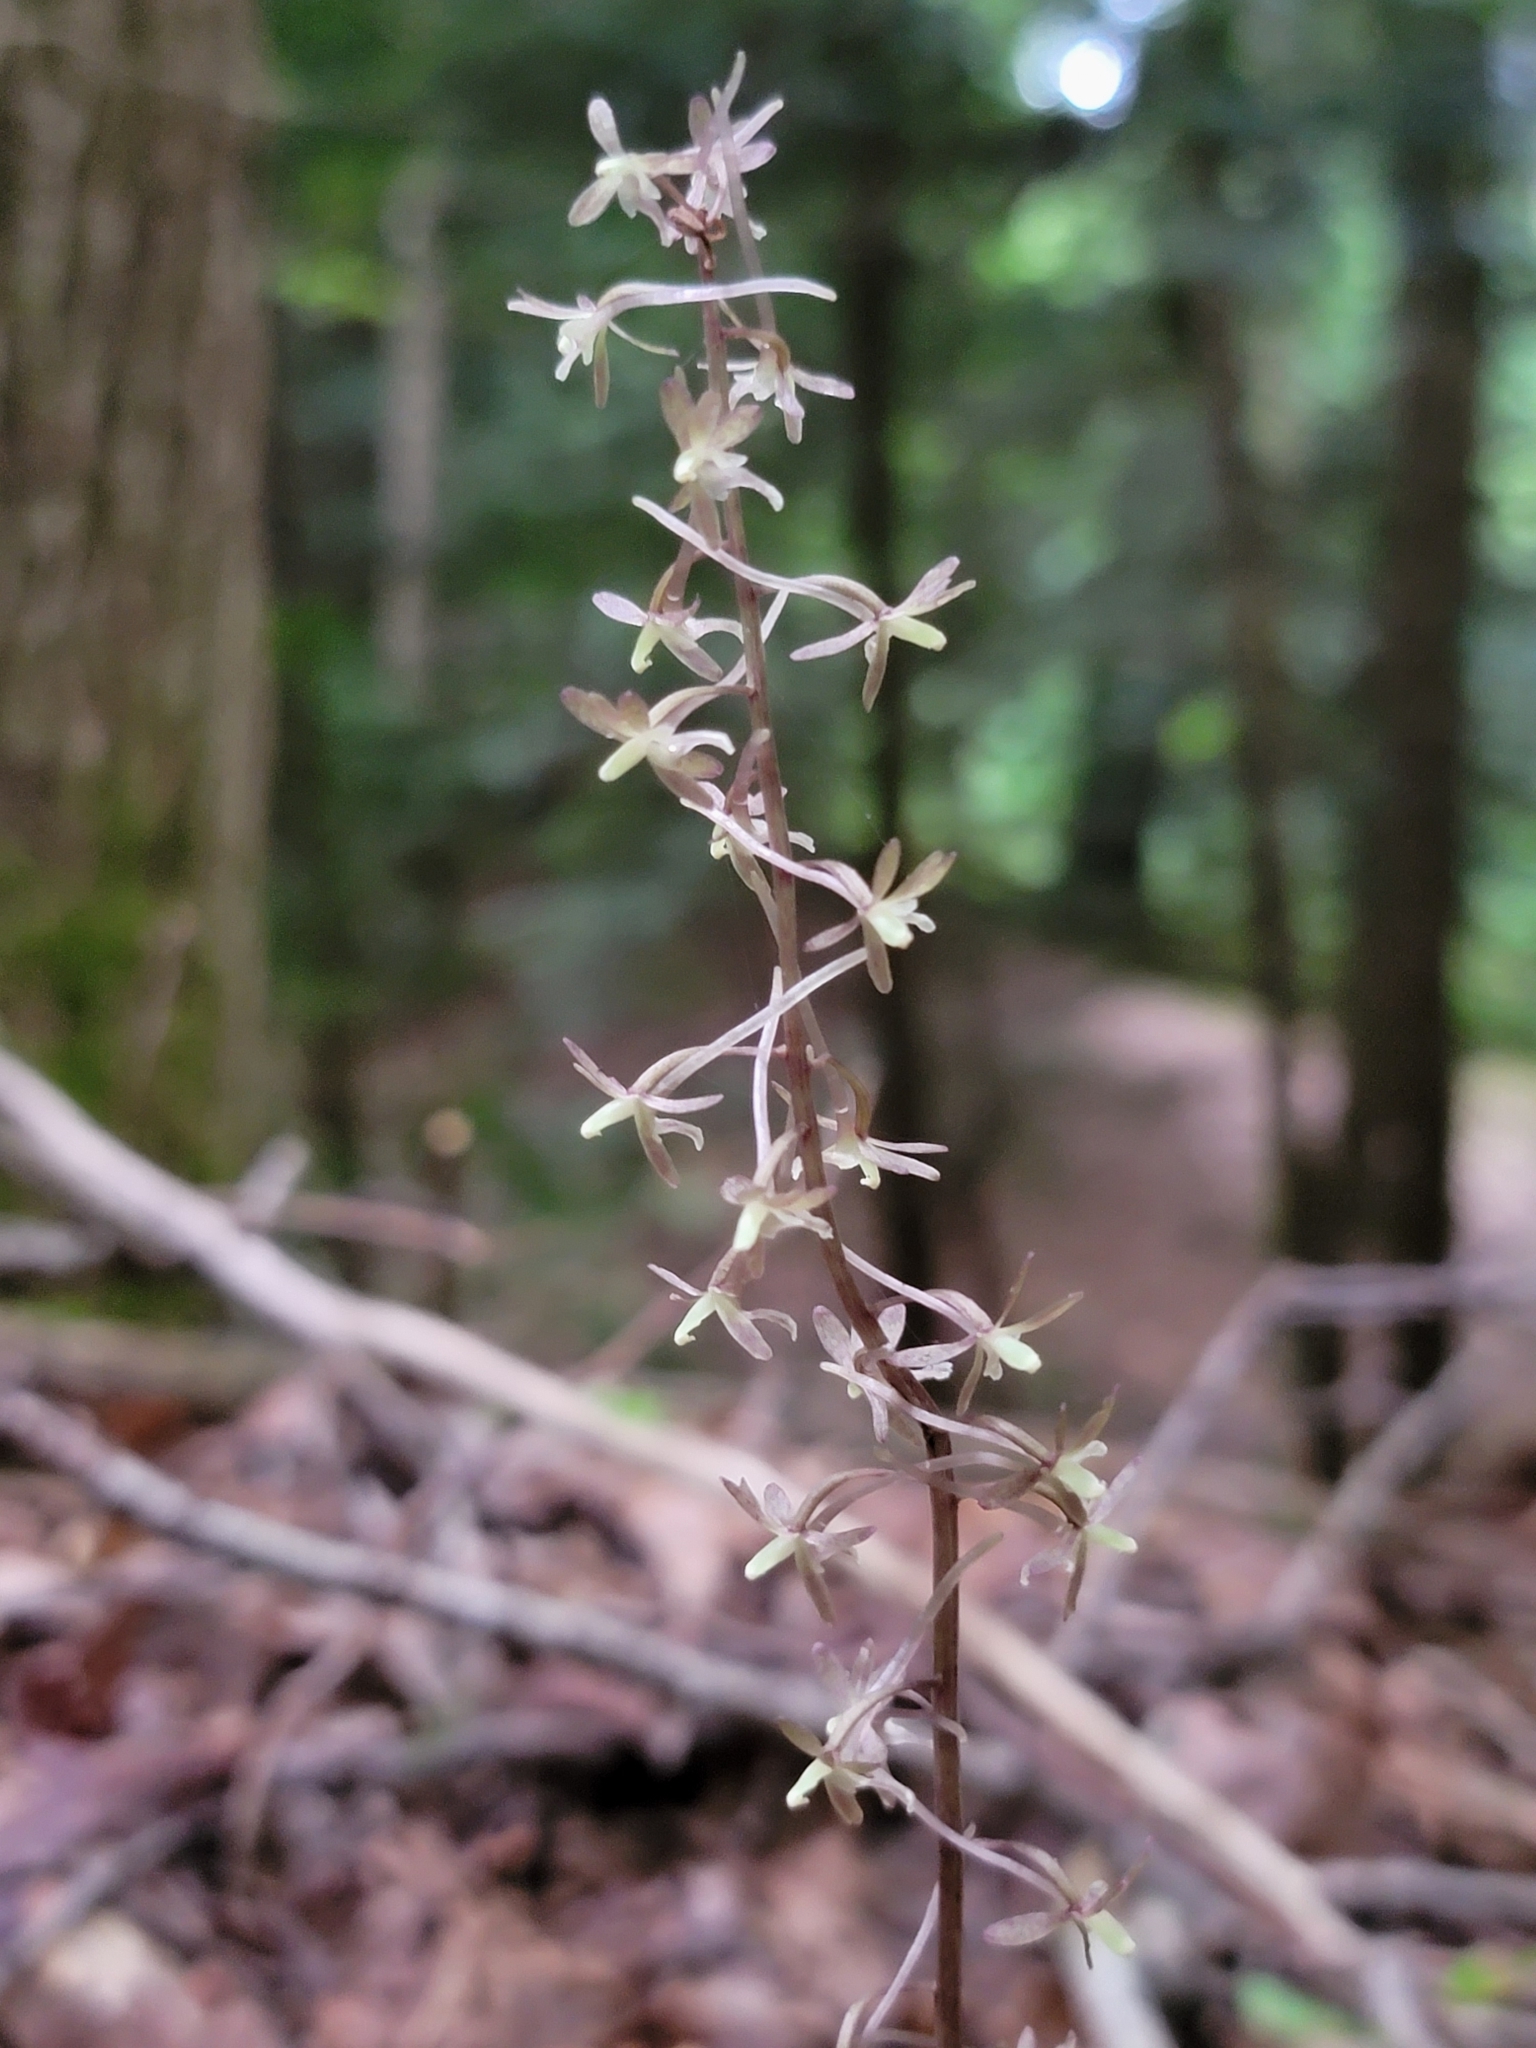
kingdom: Plantae
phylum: Tracheophyta
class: Liliopsida
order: Asparagales
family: Orchidaceae
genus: Tipularia
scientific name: Tipularia discolor
